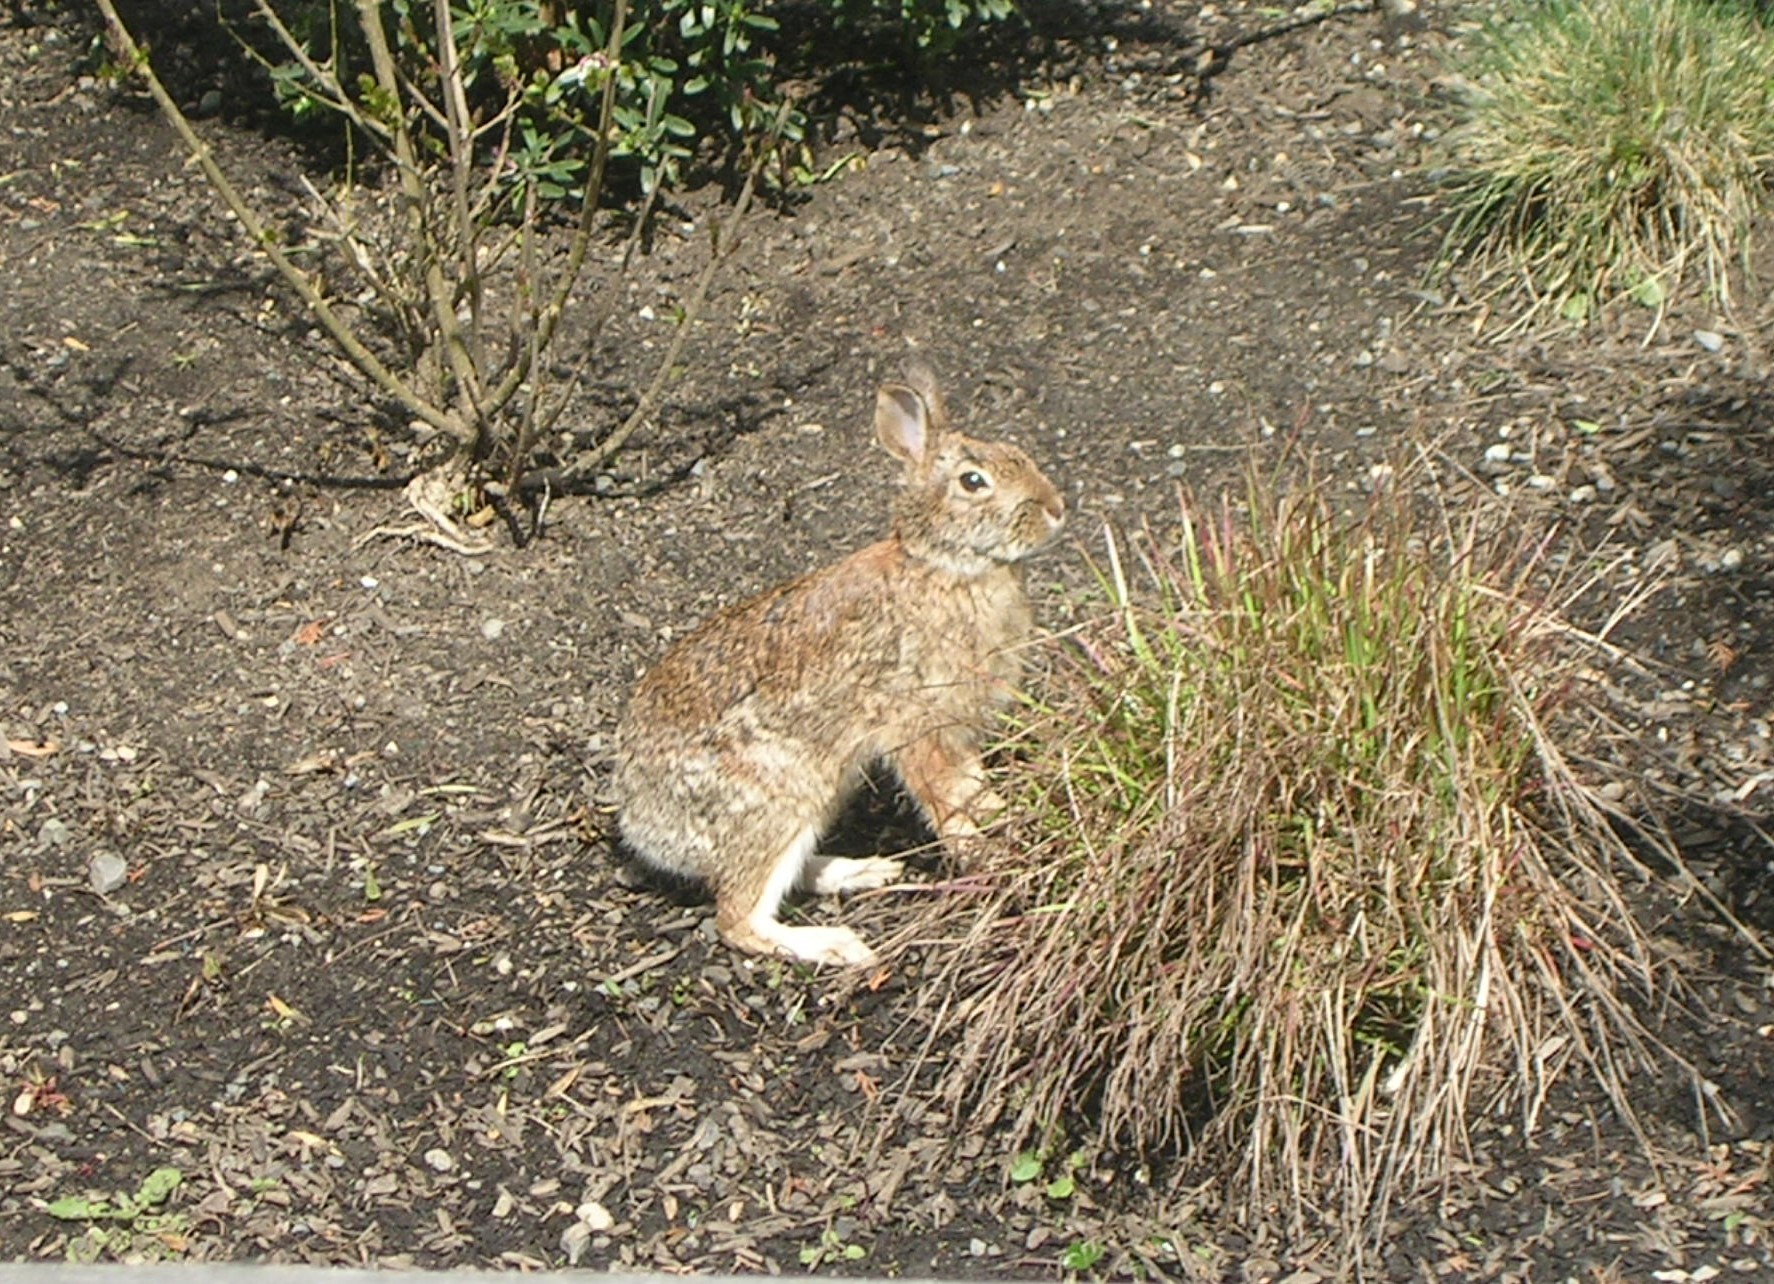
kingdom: Animalia
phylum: Chordata
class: Mammalia
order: Lagomorpha
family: Leporidae
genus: Sylvilagus
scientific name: Sylvilagus floridanus
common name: Eastern cottontail
